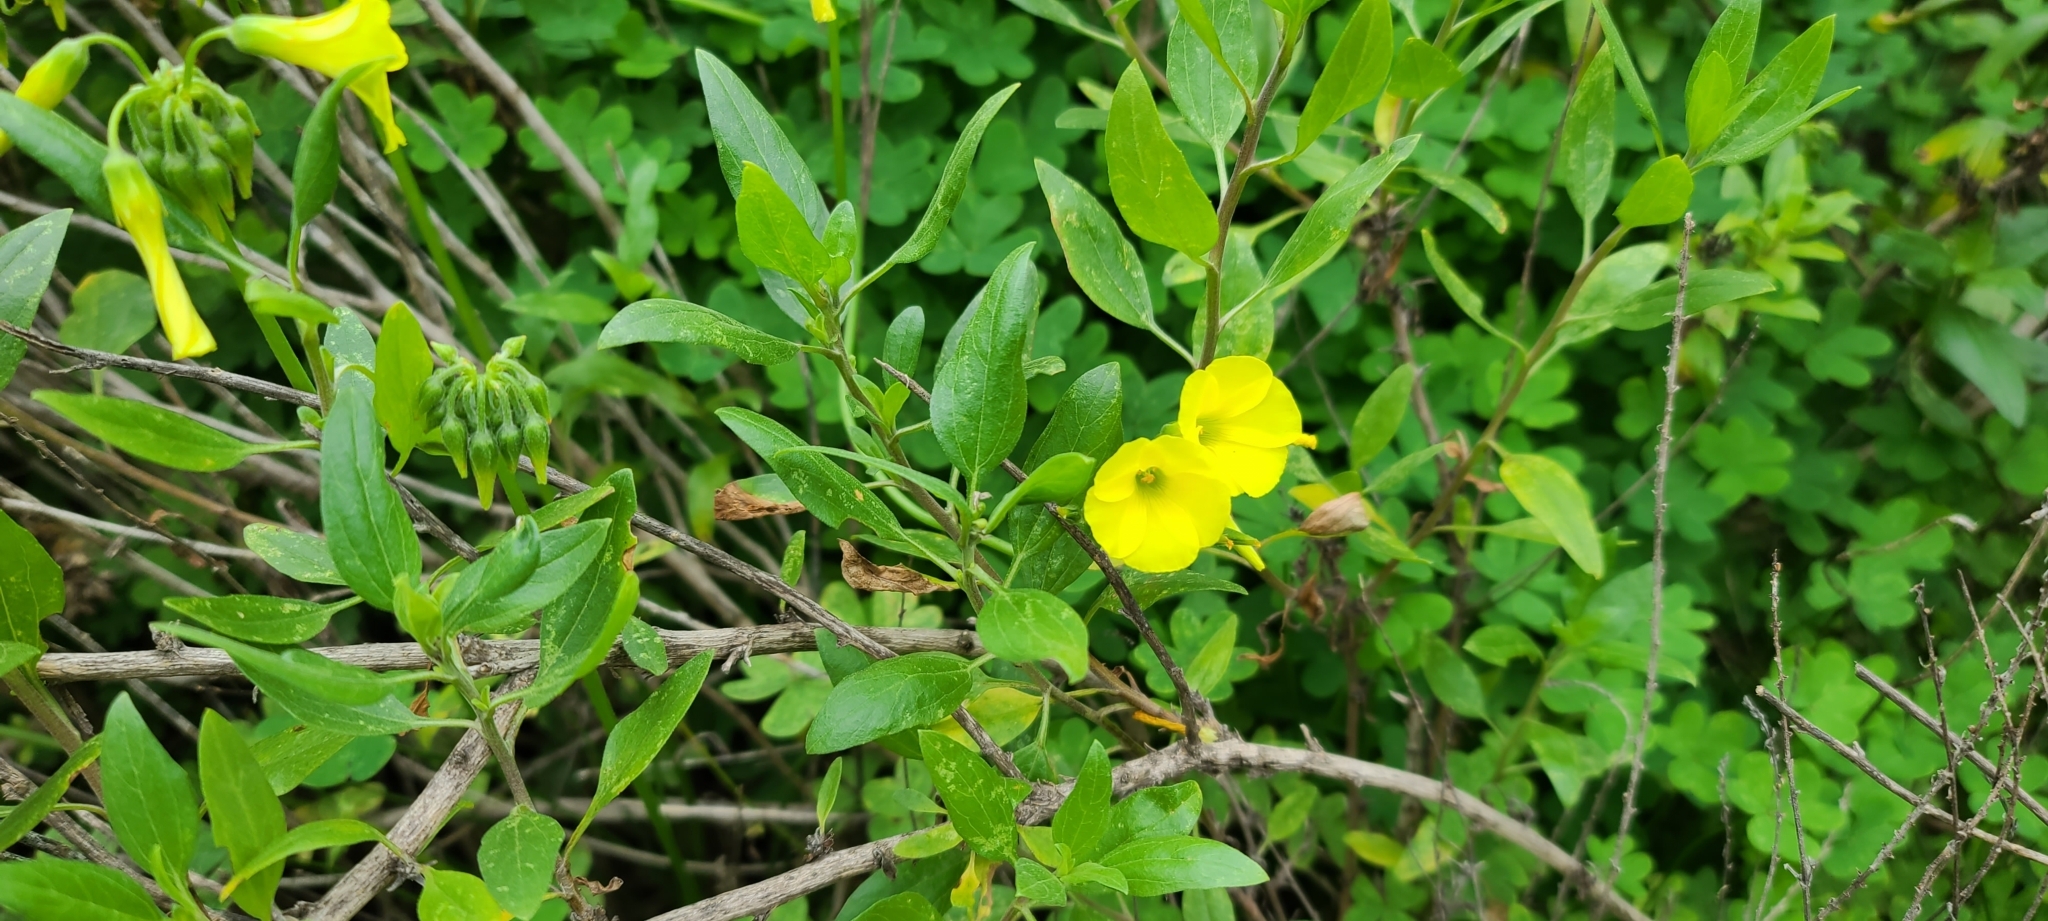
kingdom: Plantae
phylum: Tracheophyta
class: Magnoliopsida
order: Oxalidales
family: Oxalidaceae
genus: Oxalis
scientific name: Oxalis pes-caprae
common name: Bermuda-buttercup
